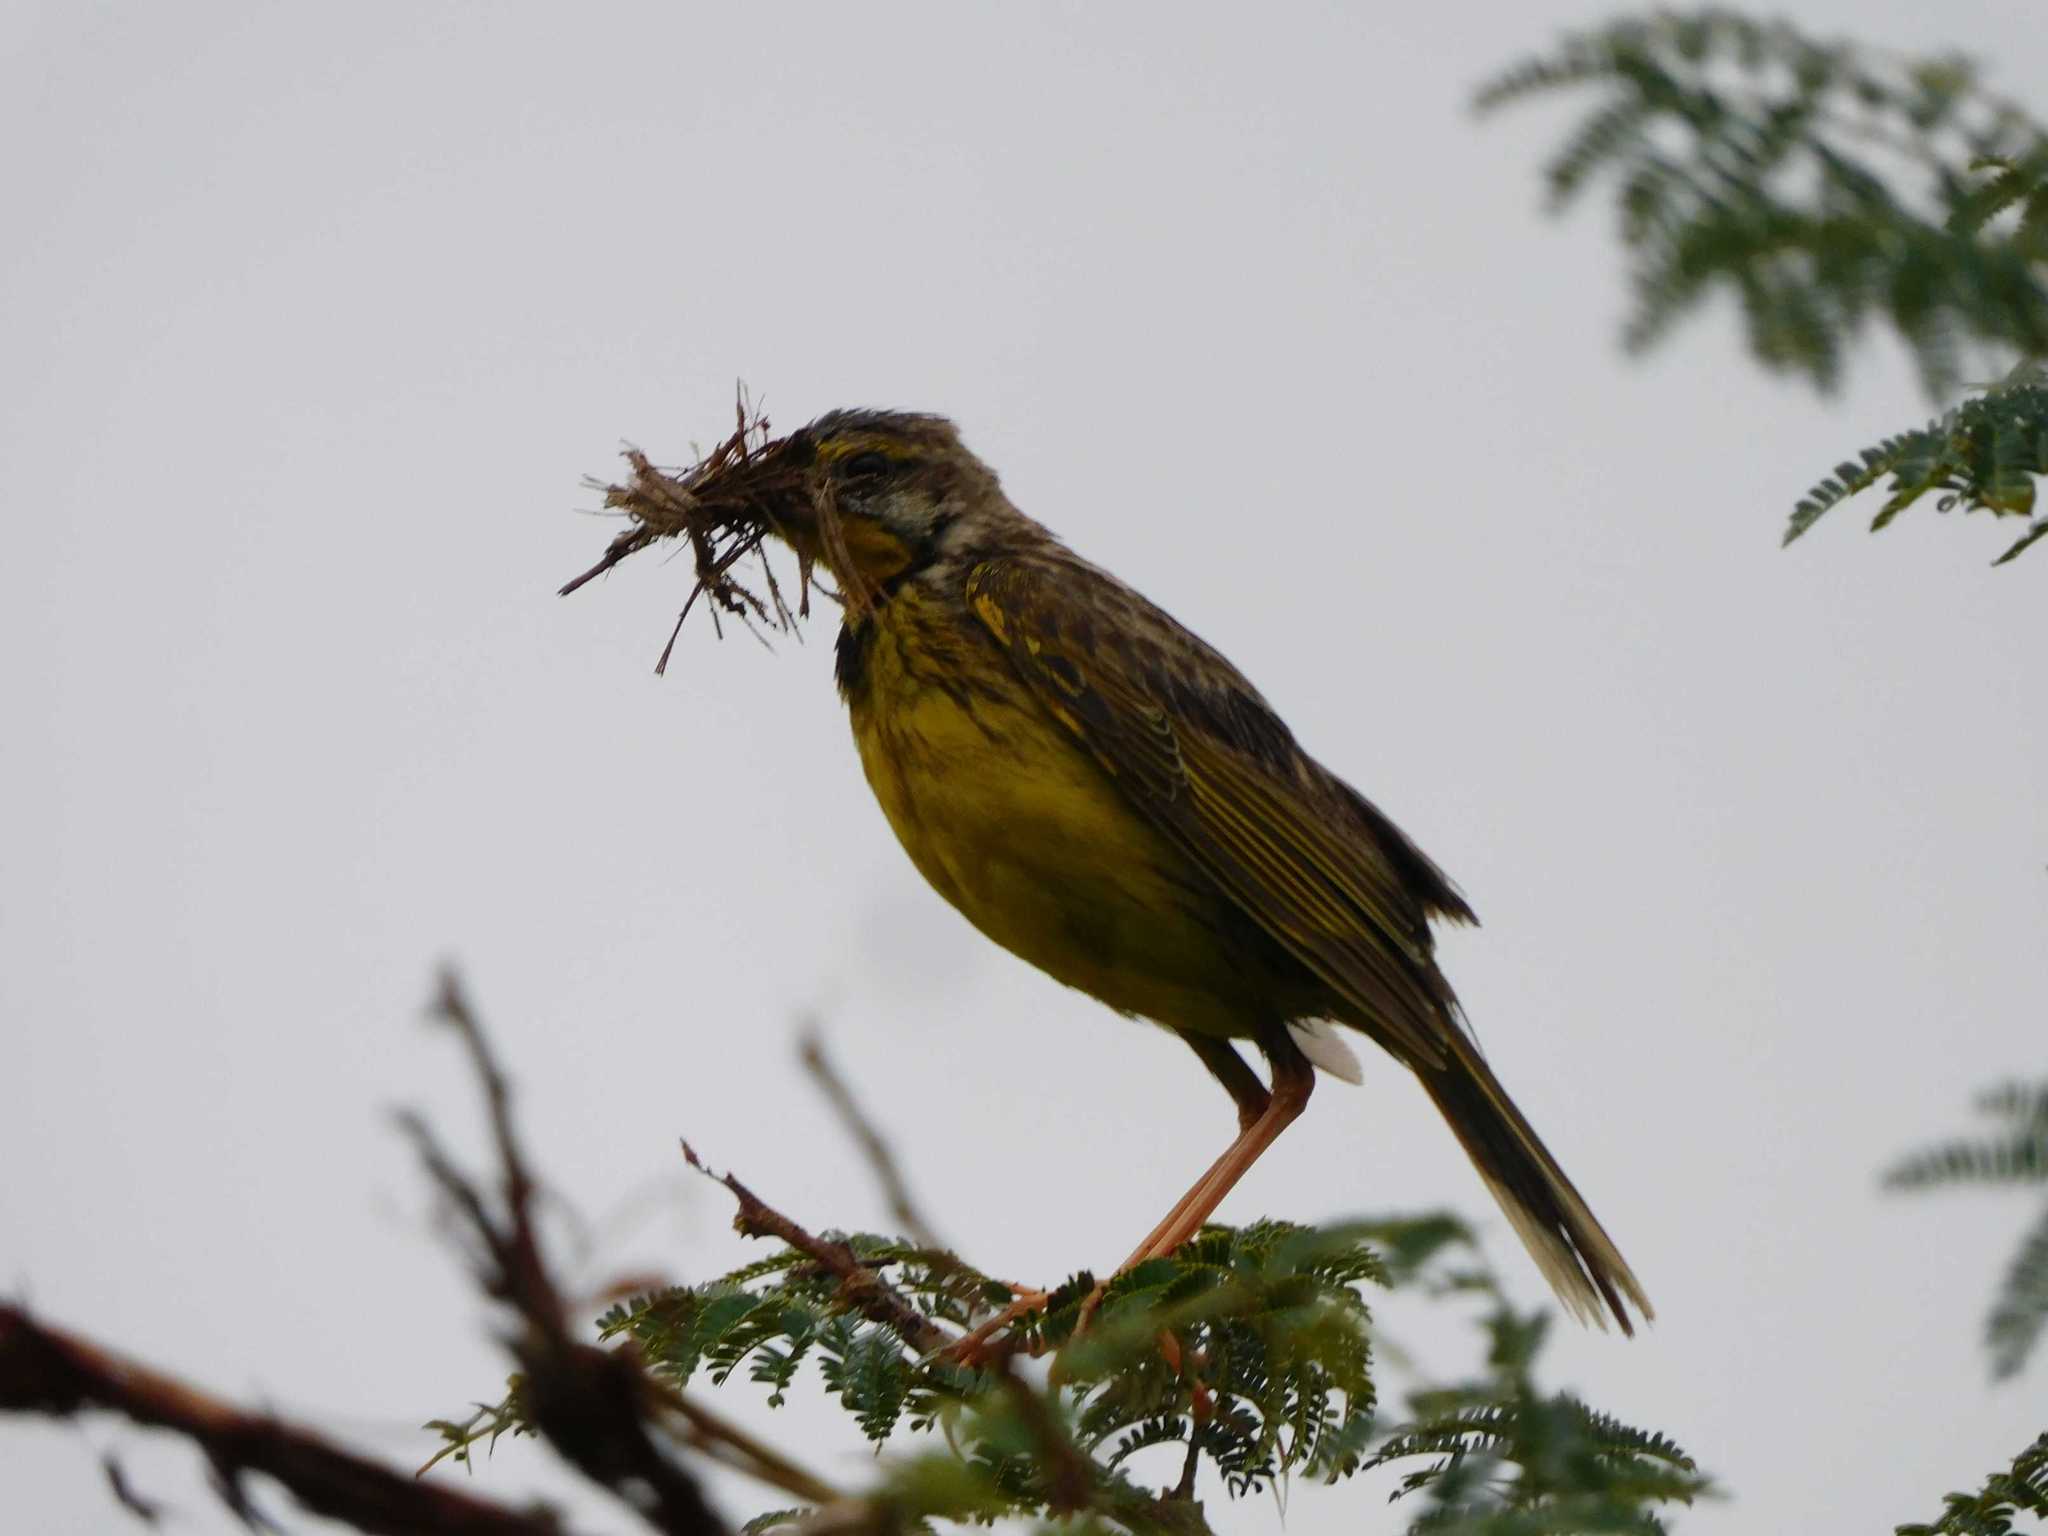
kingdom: Animalia
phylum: Chordata
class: Aves
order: Passeriformes
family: Motacillidae
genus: Macronyx
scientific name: Macronyx croceus
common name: Yellow-throated longclaw
